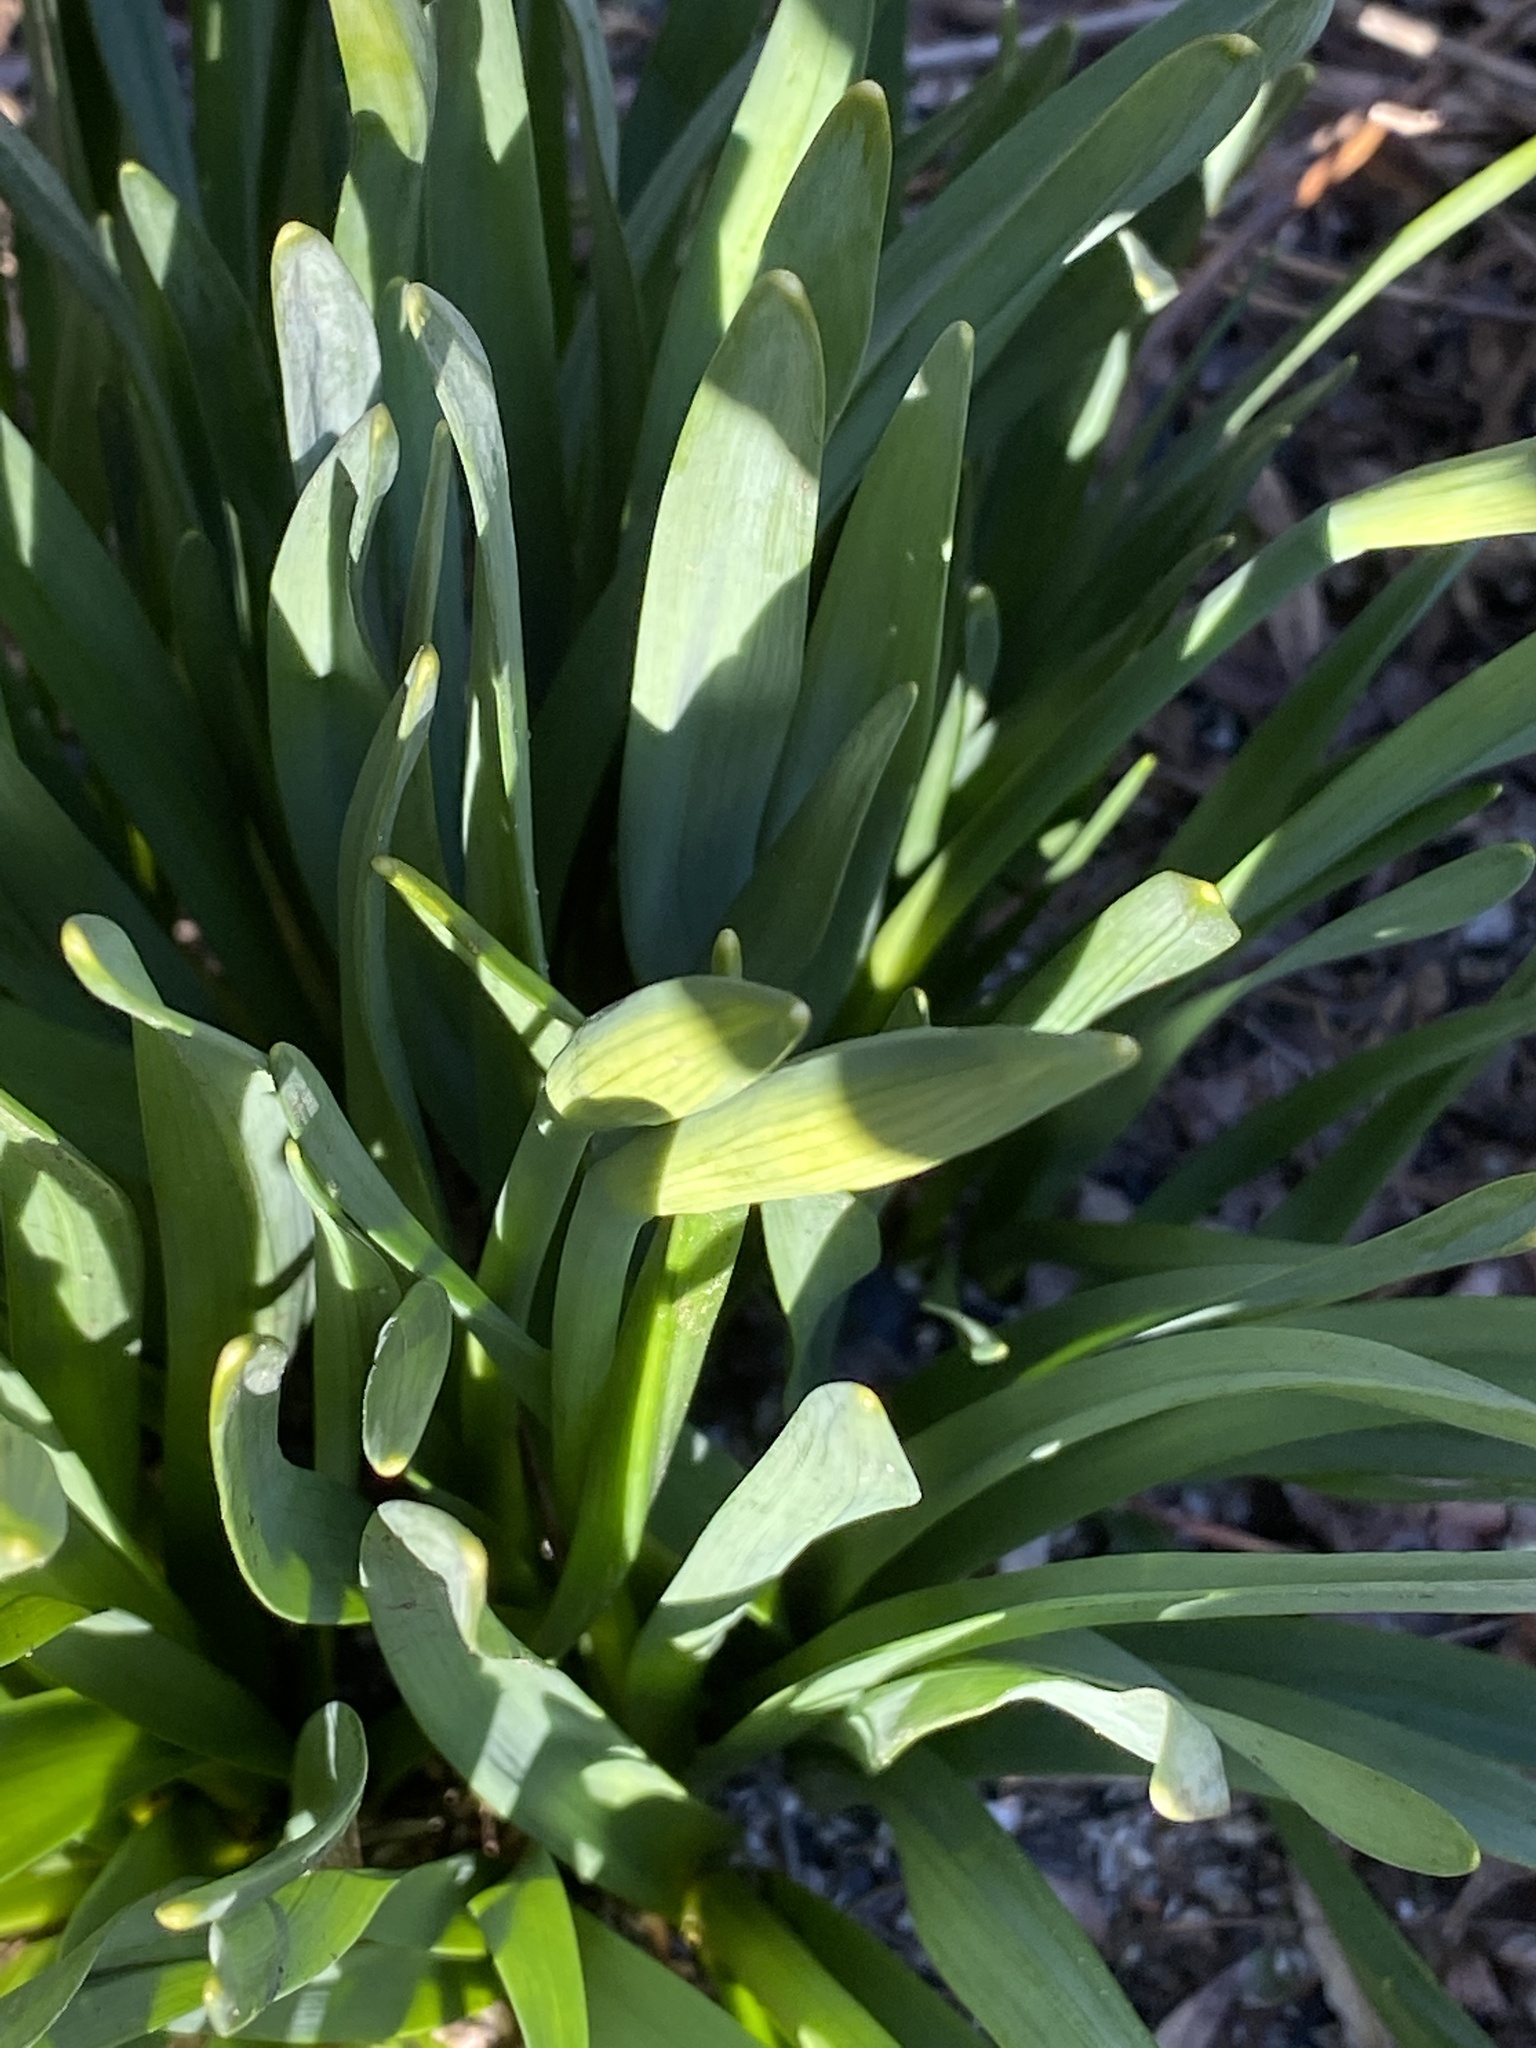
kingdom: Plantae
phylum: Tracheophyta
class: Liliopsida
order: Asparagales
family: Amaryllidaceae
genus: Narcissus
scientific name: Narcissus
